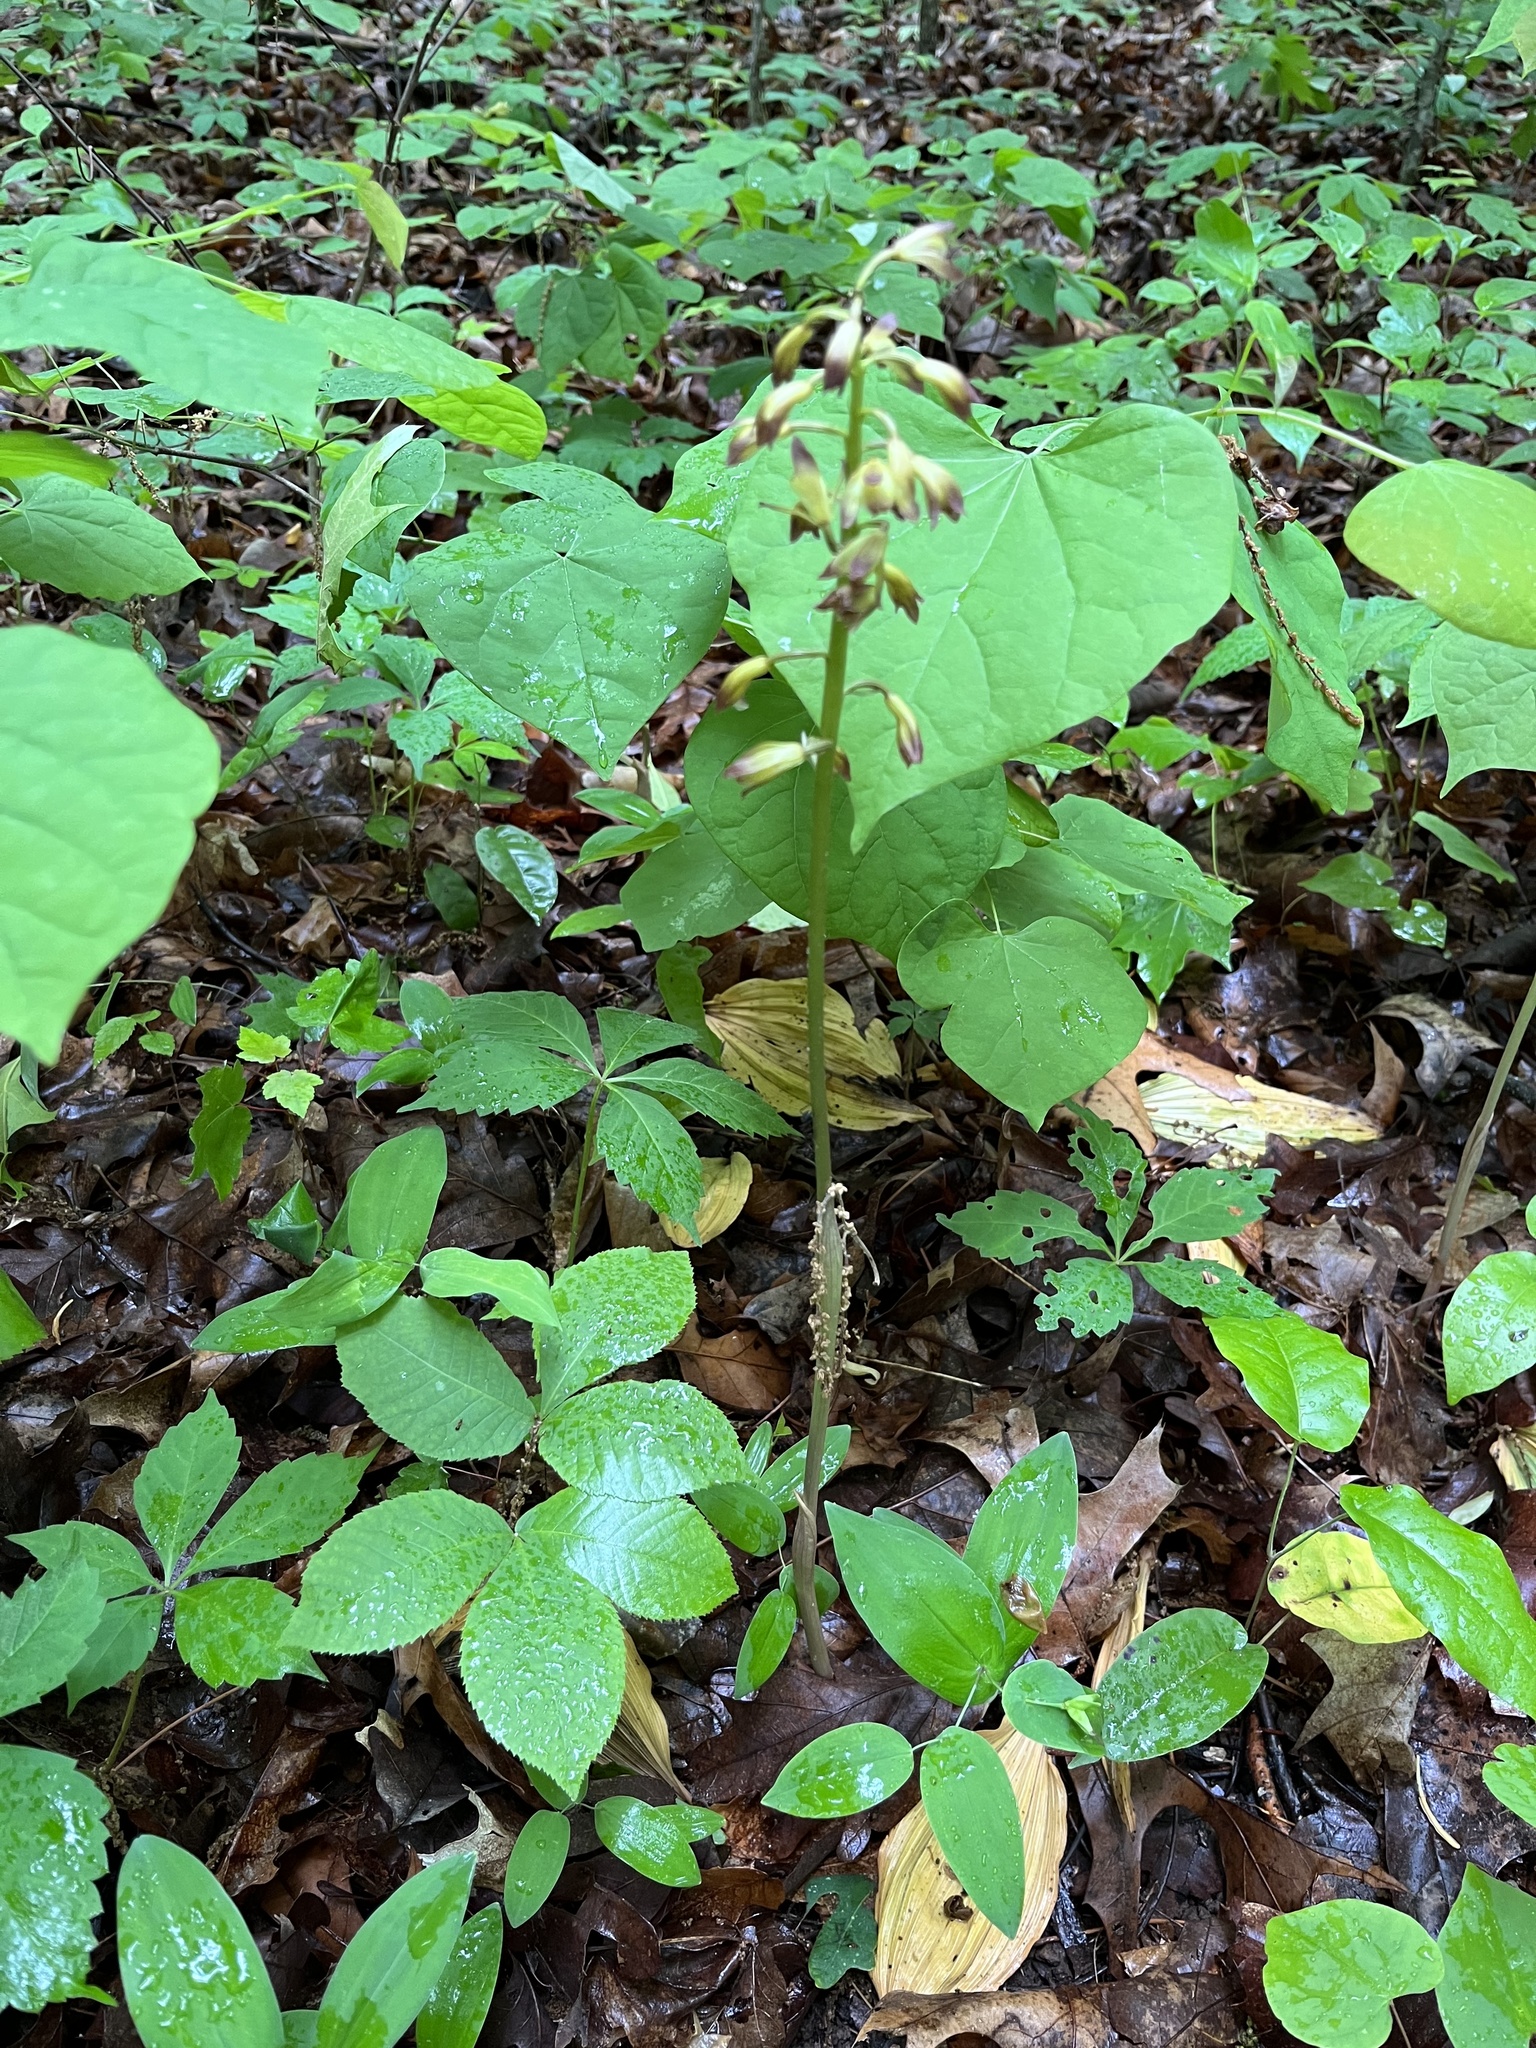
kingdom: Plantae
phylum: Tracheophyta
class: Liliopsida
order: Asparagales
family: Orchidaceae
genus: Aplectrum
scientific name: Aplectrum hyemale
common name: Adam-and-eve
